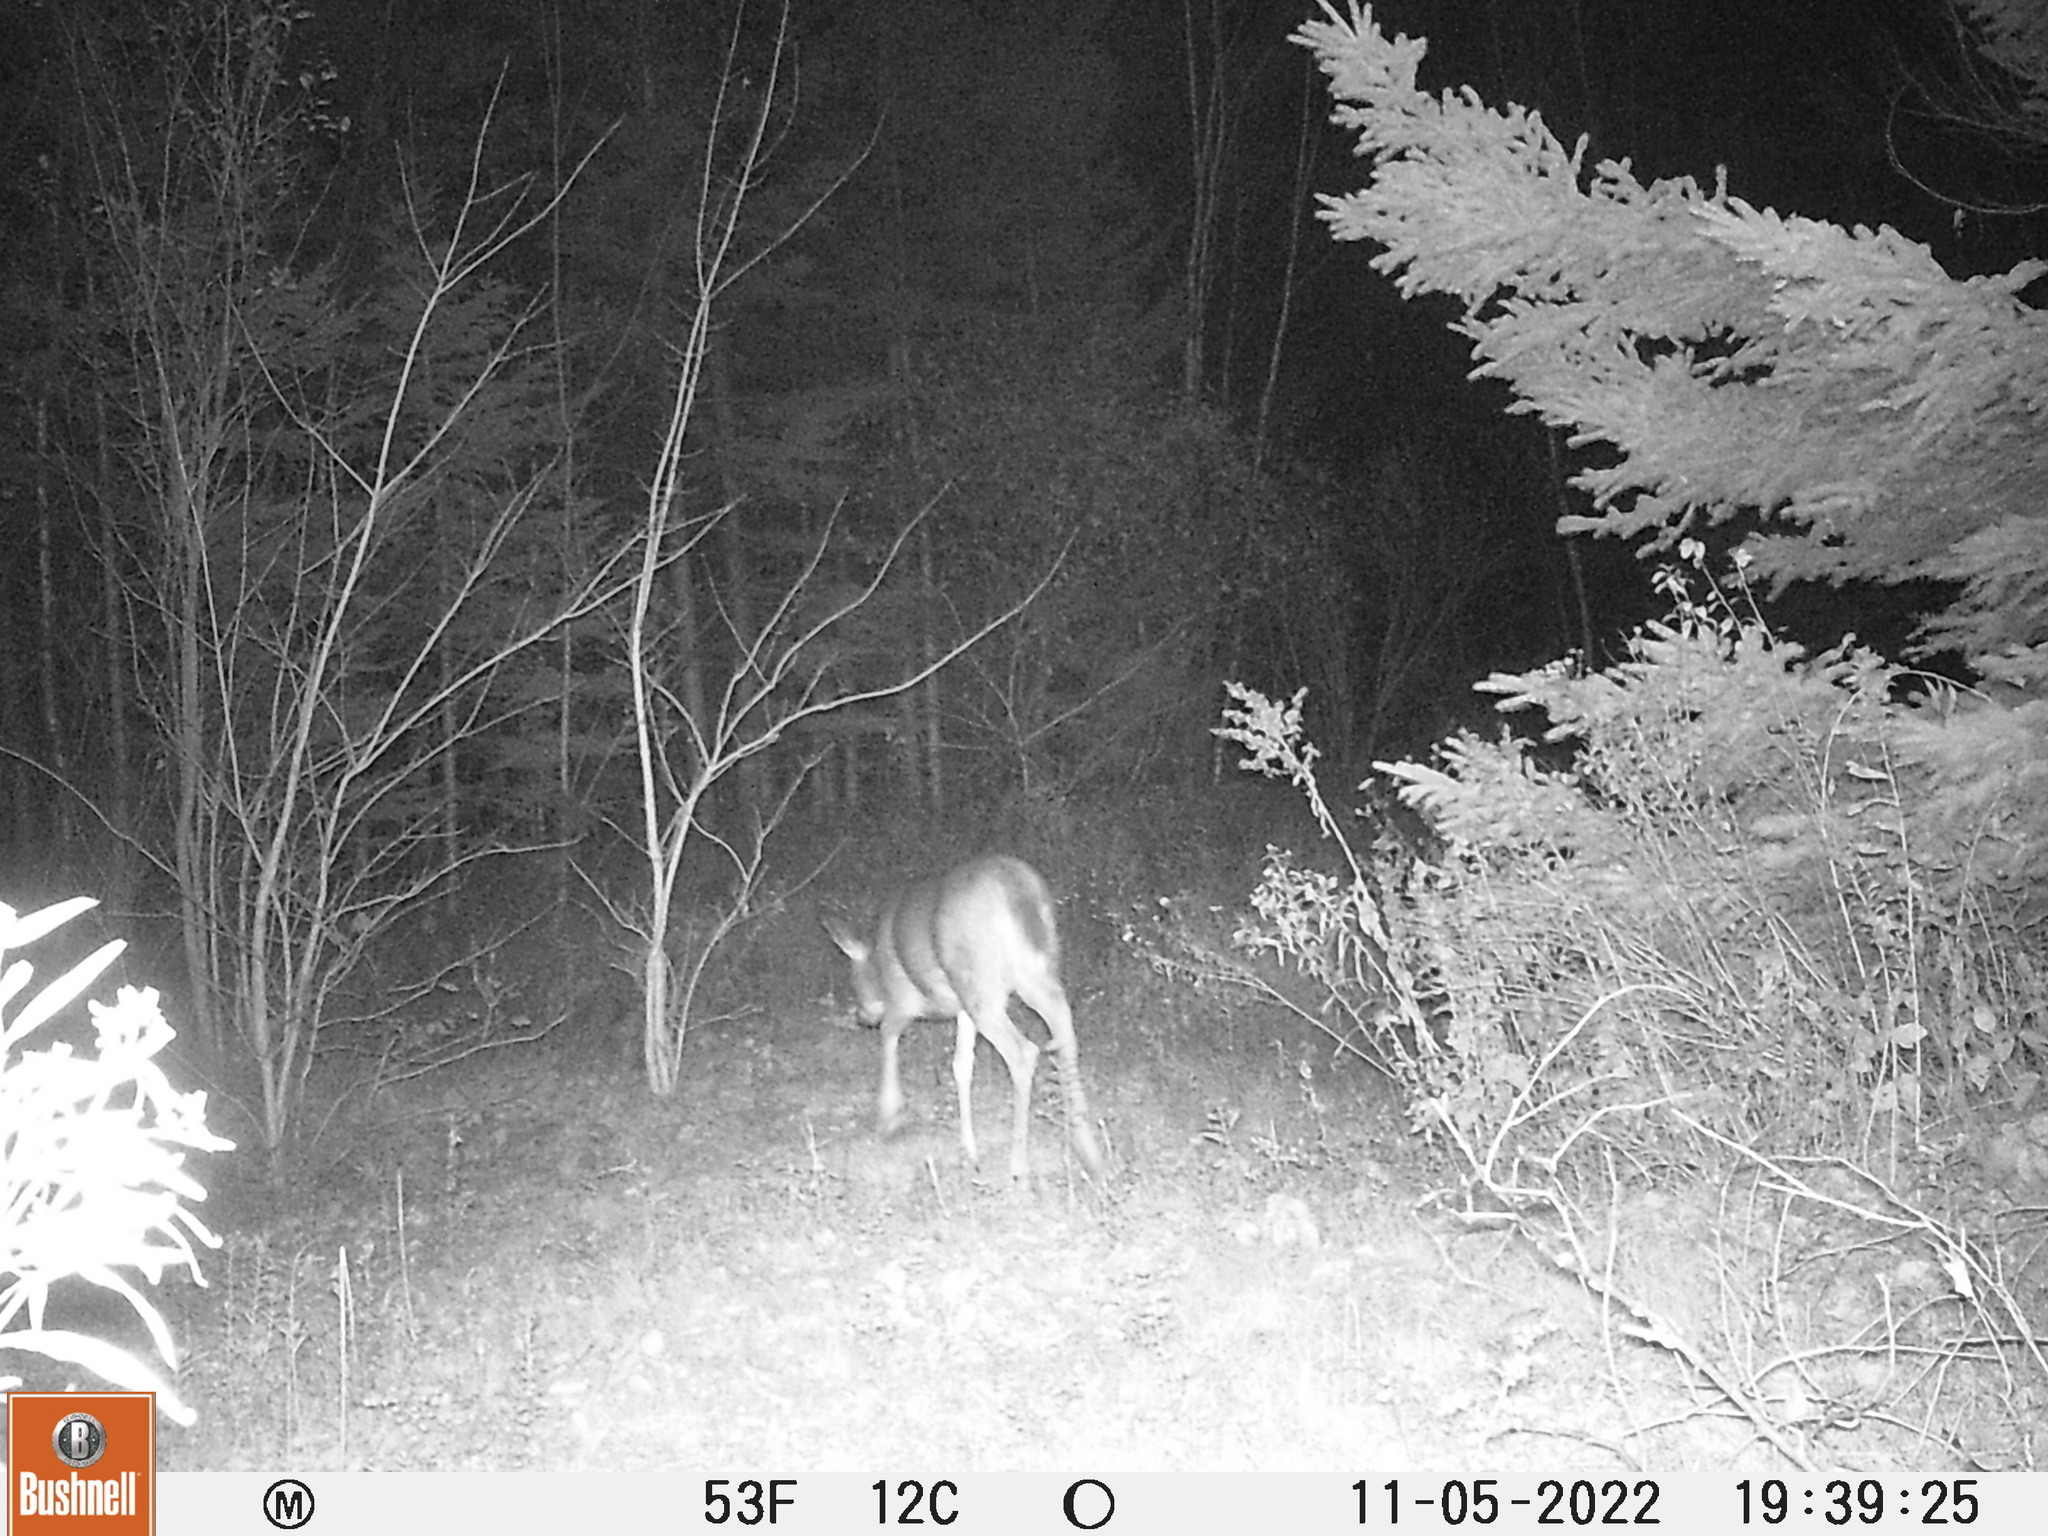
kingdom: Animalia
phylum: Chordata
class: Mammalia
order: Artiodactyla
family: Cervidae
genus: Odocoileus
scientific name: Odocoileus virginianus
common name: White-tailed deer
